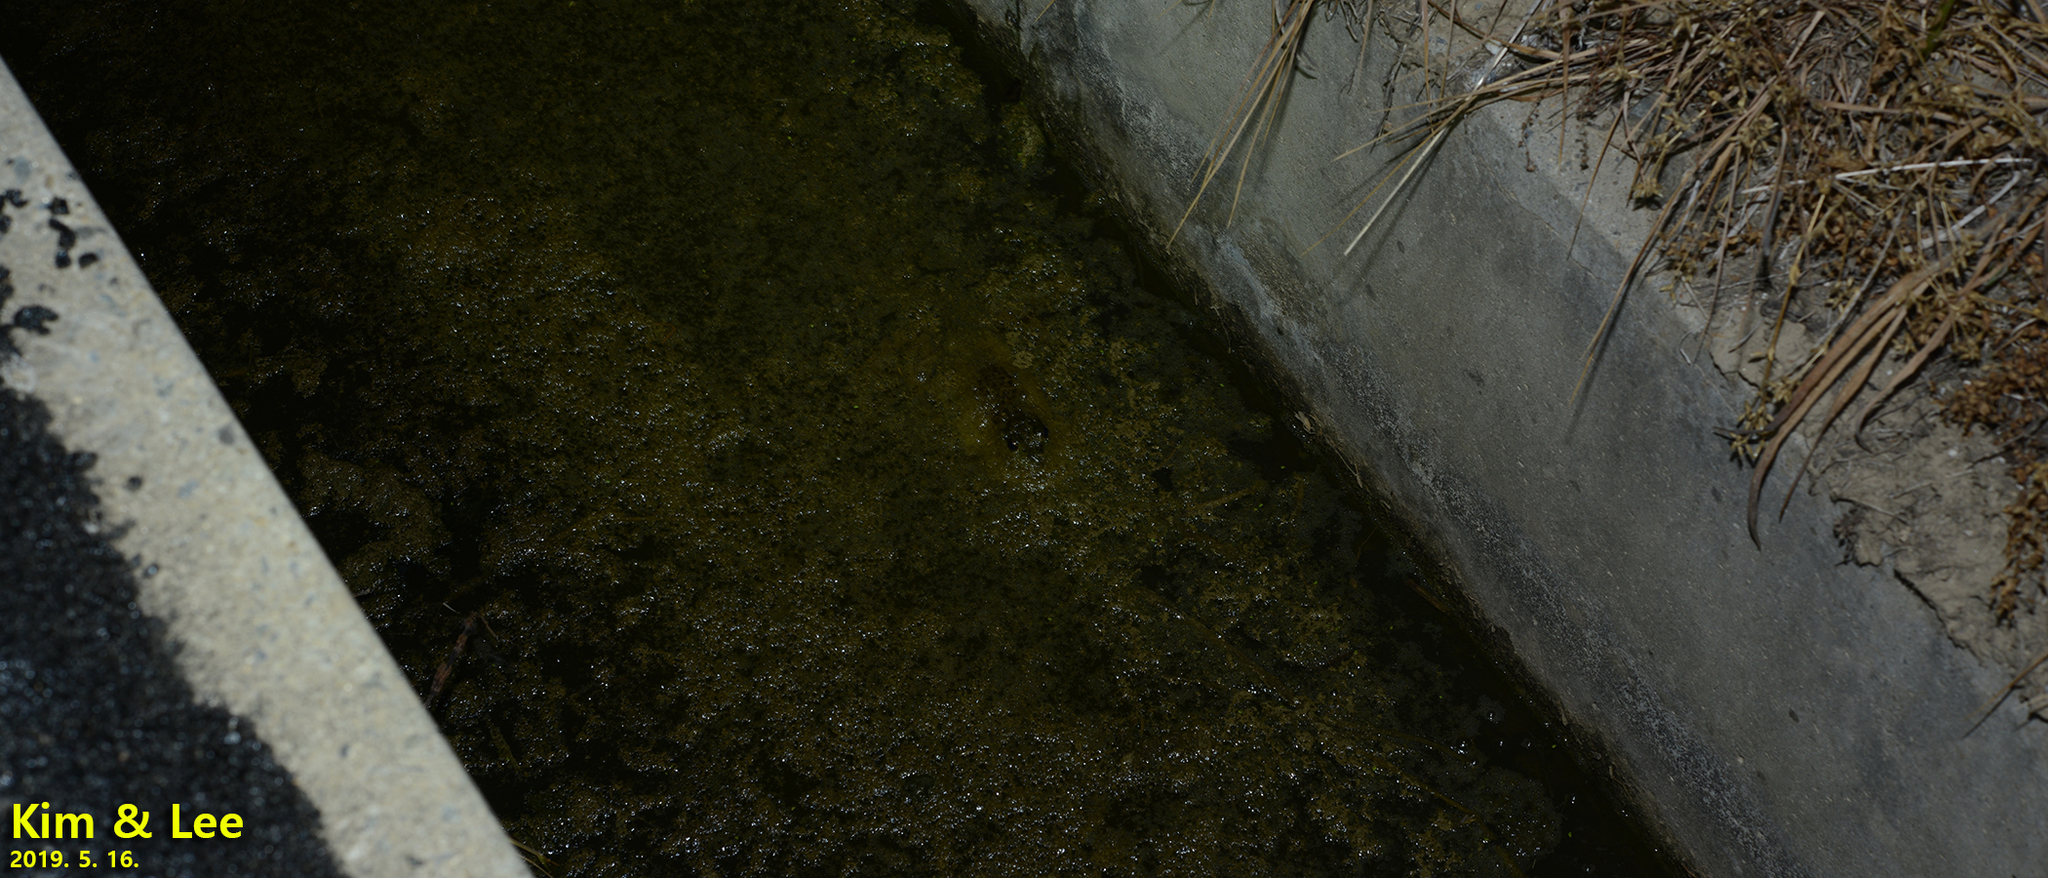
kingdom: Animalia
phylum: Chordata
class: Amphibia
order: Anura
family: Ranidae
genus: Lithobates
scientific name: Lithobates catesbeianus
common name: American bullfrog
